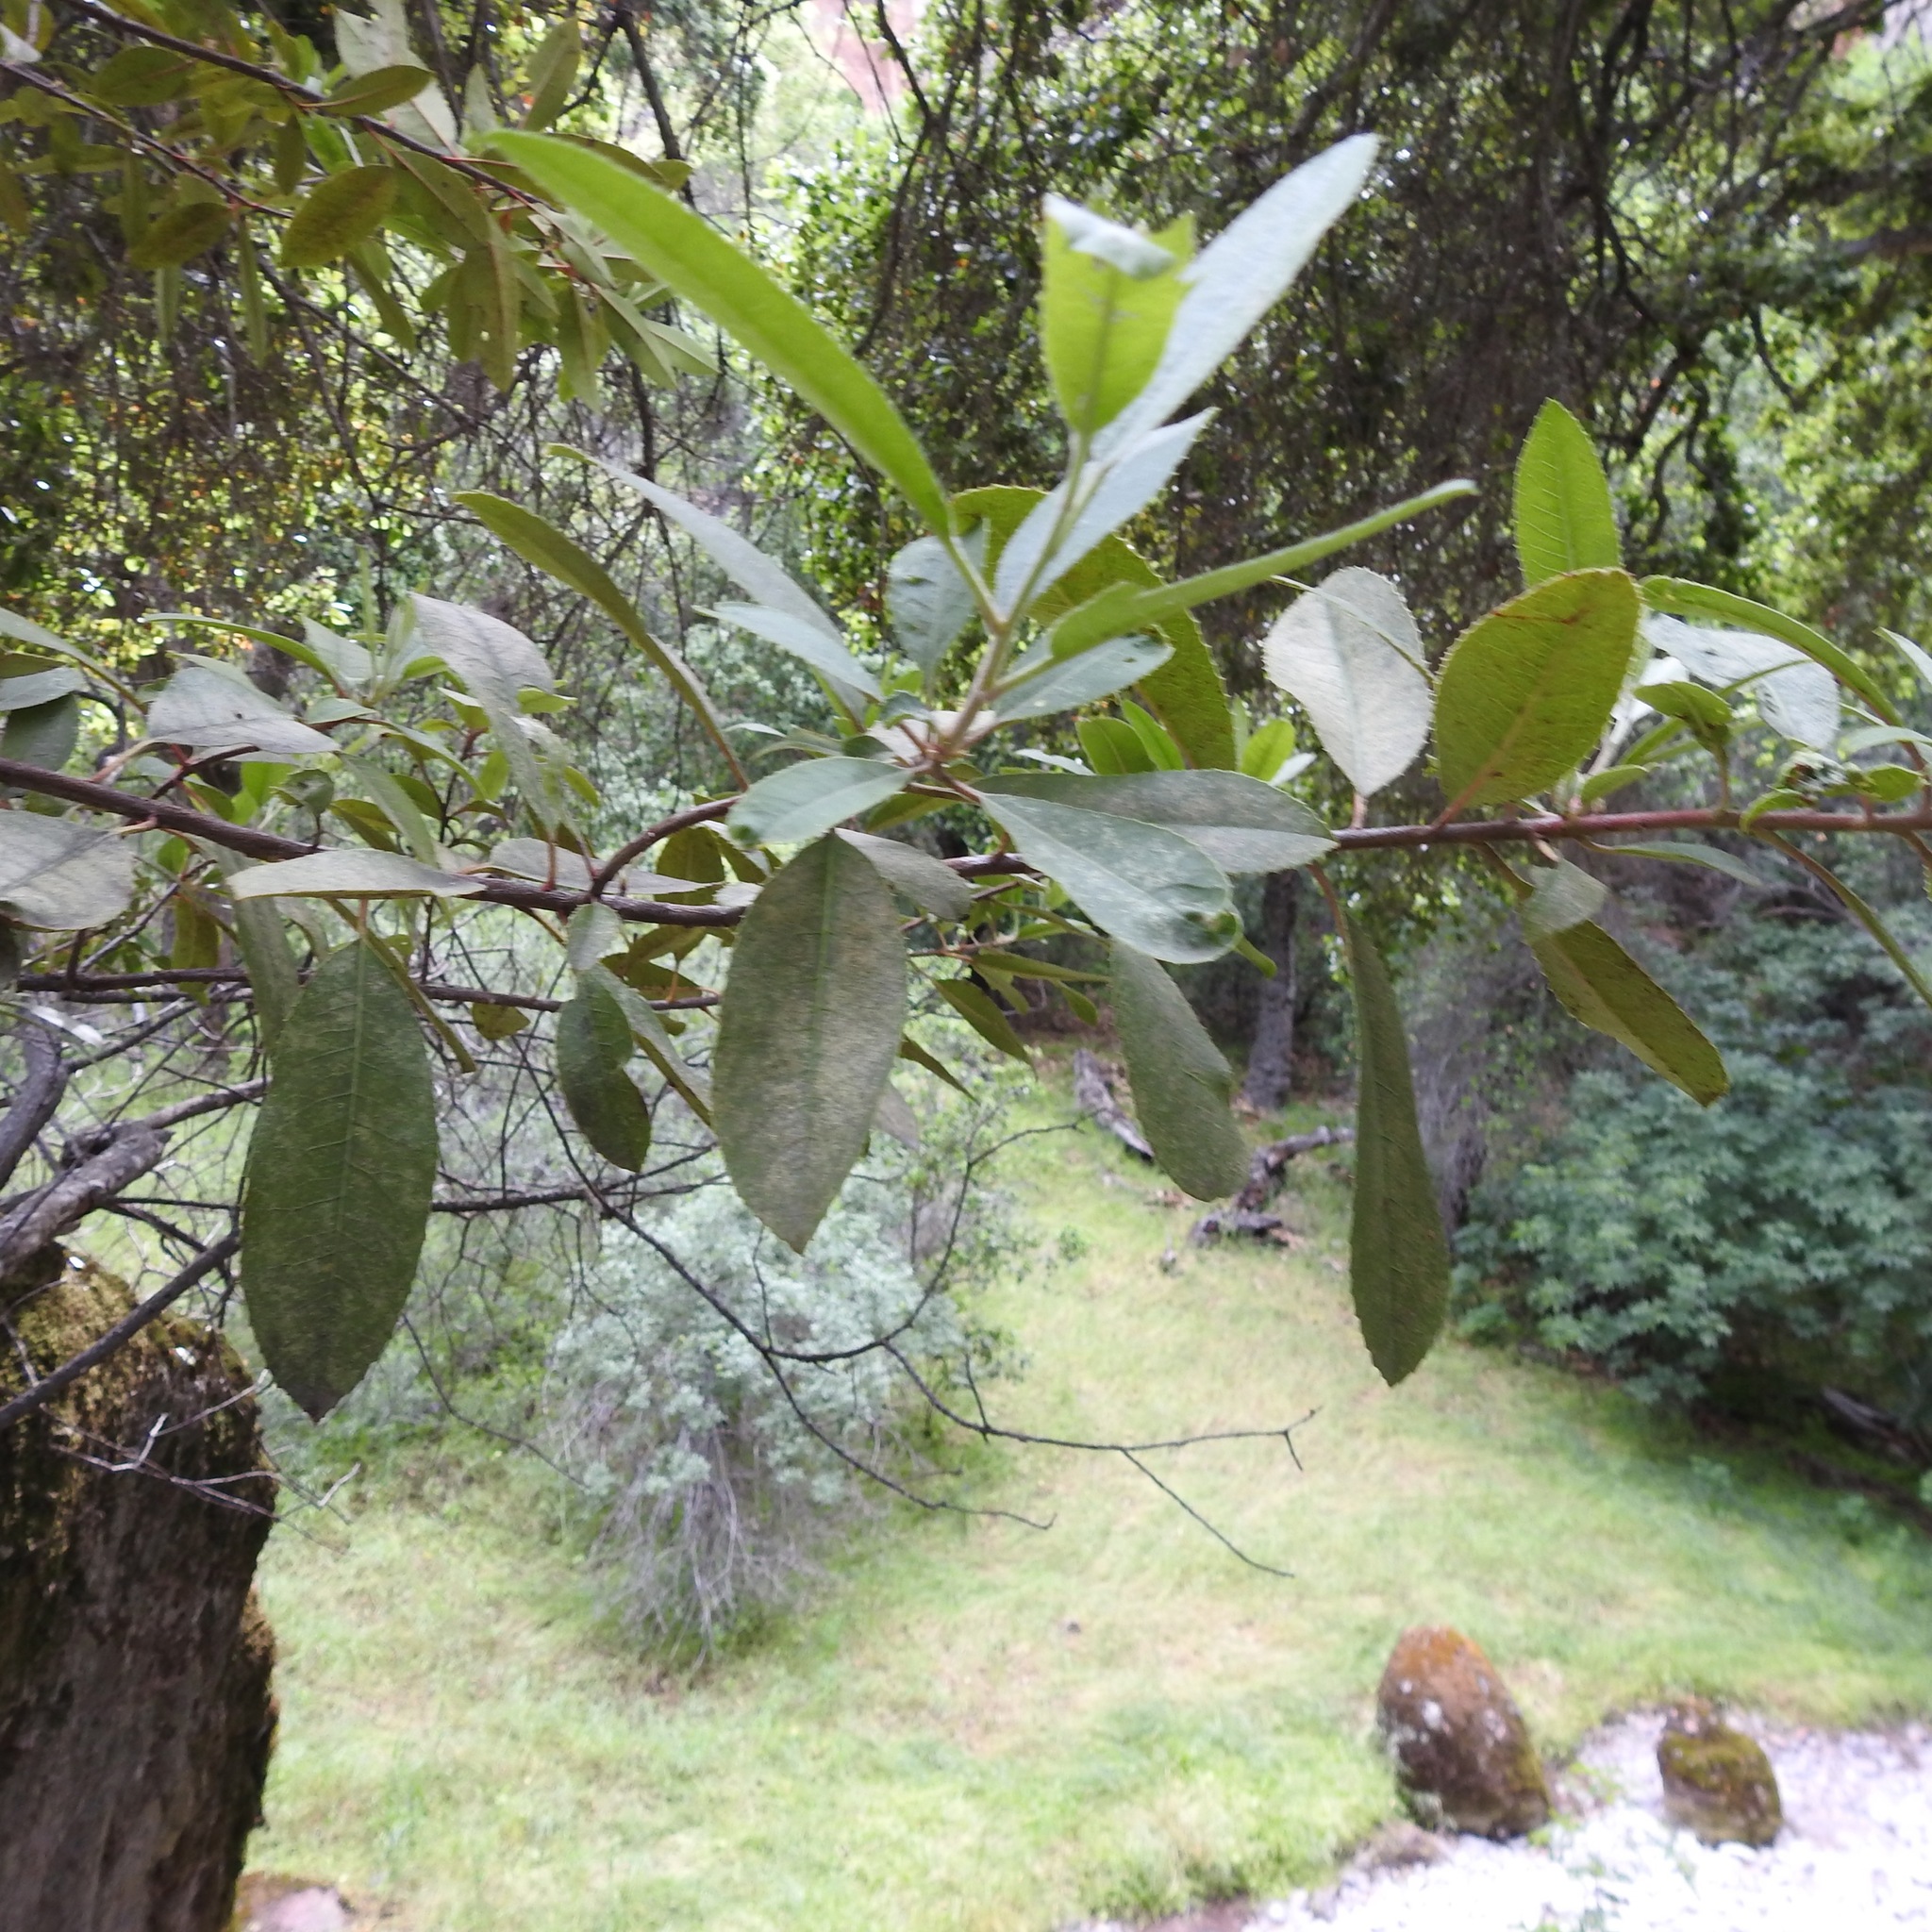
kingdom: Plantae
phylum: Tracheophyta
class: Magnoliopsida
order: Rosales
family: Rosaceae
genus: Heteromeles
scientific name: Heteromeles arbutifolia
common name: California-holly
